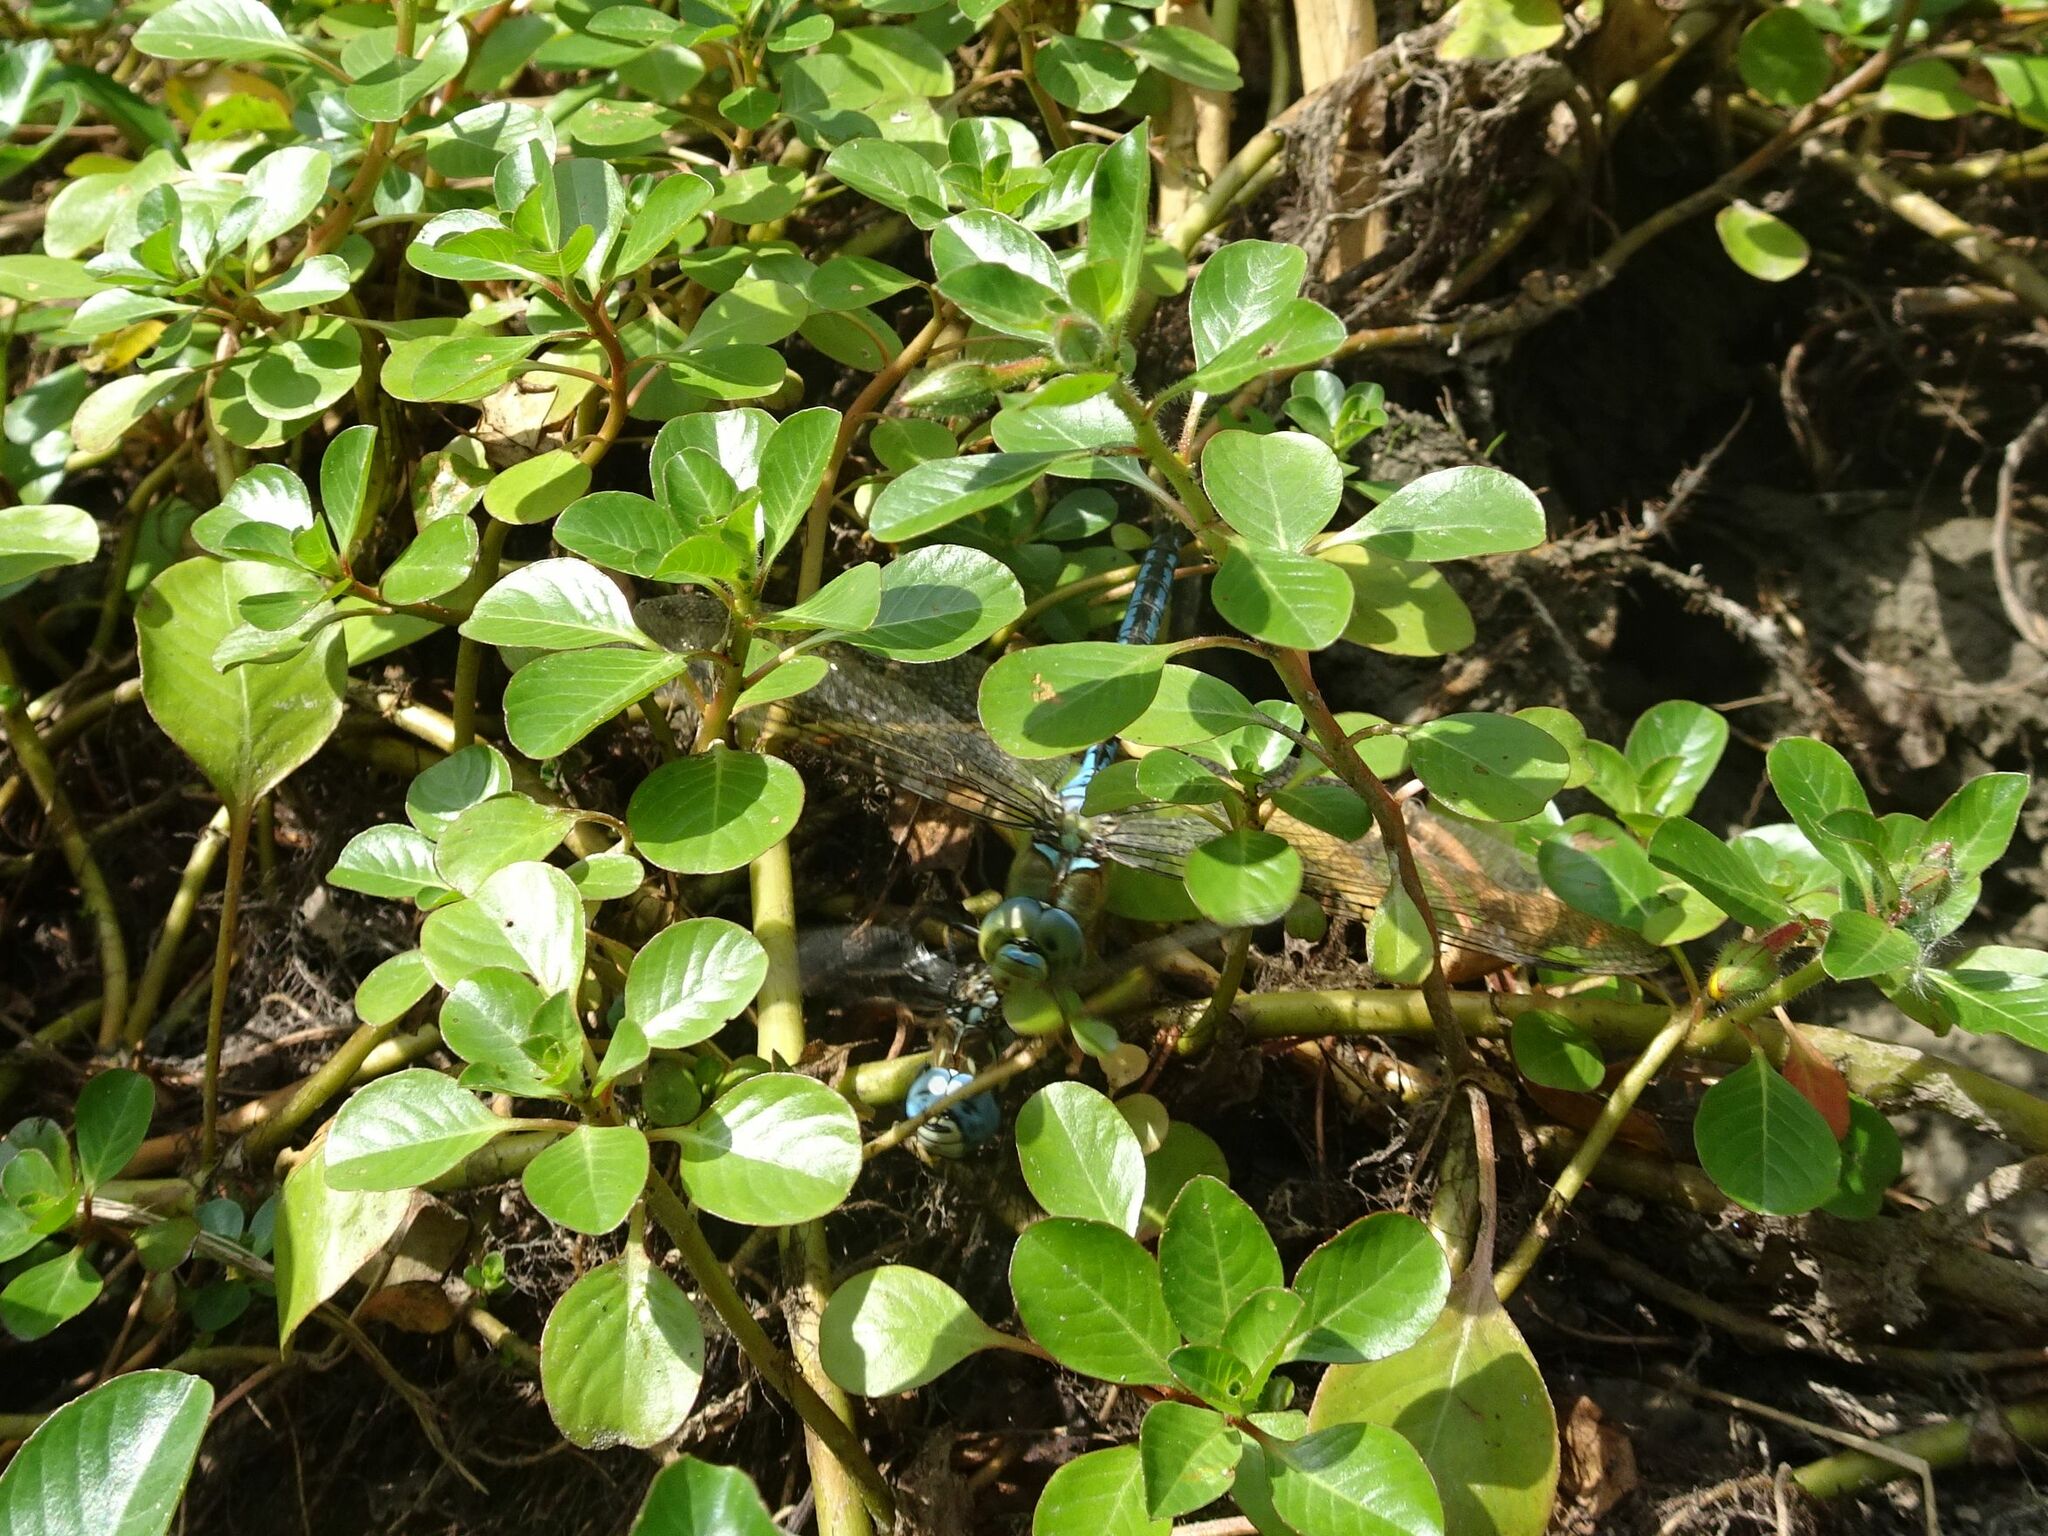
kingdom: Animalia
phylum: Arthropoda
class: Insecta
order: Odonata
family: Aeshnidae
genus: Anax
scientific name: Anax imperator
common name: Emperor dragonfly
